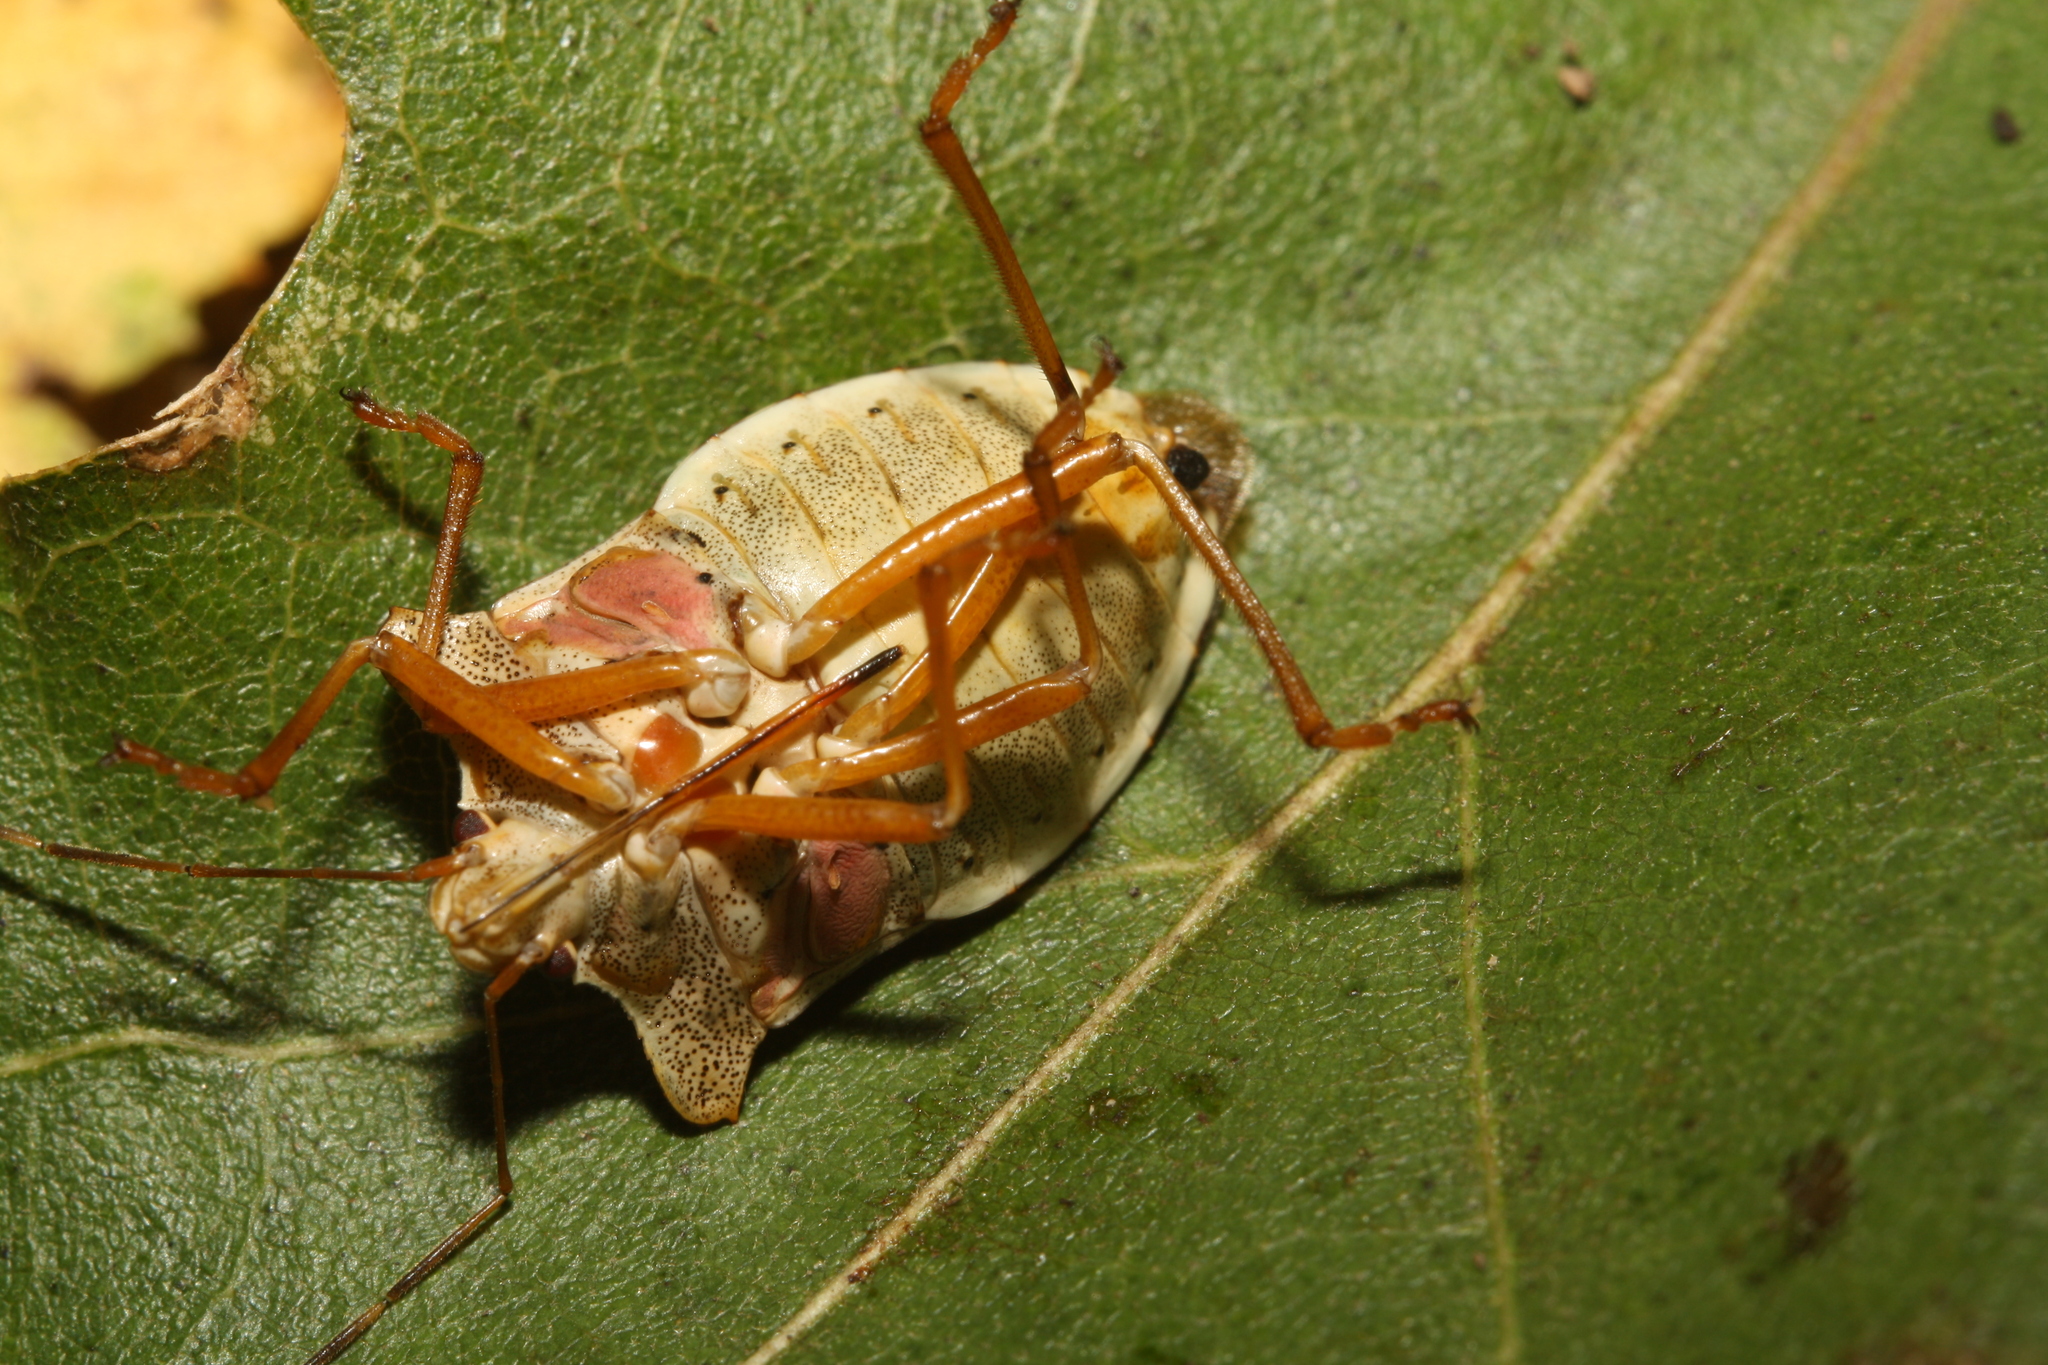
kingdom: Animalia
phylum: Arthropoda
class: Insecta
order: Hemiptera
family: Pentatomidae
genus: Pentatoma
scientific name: Pentatoma rufipes
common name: Forest bug
